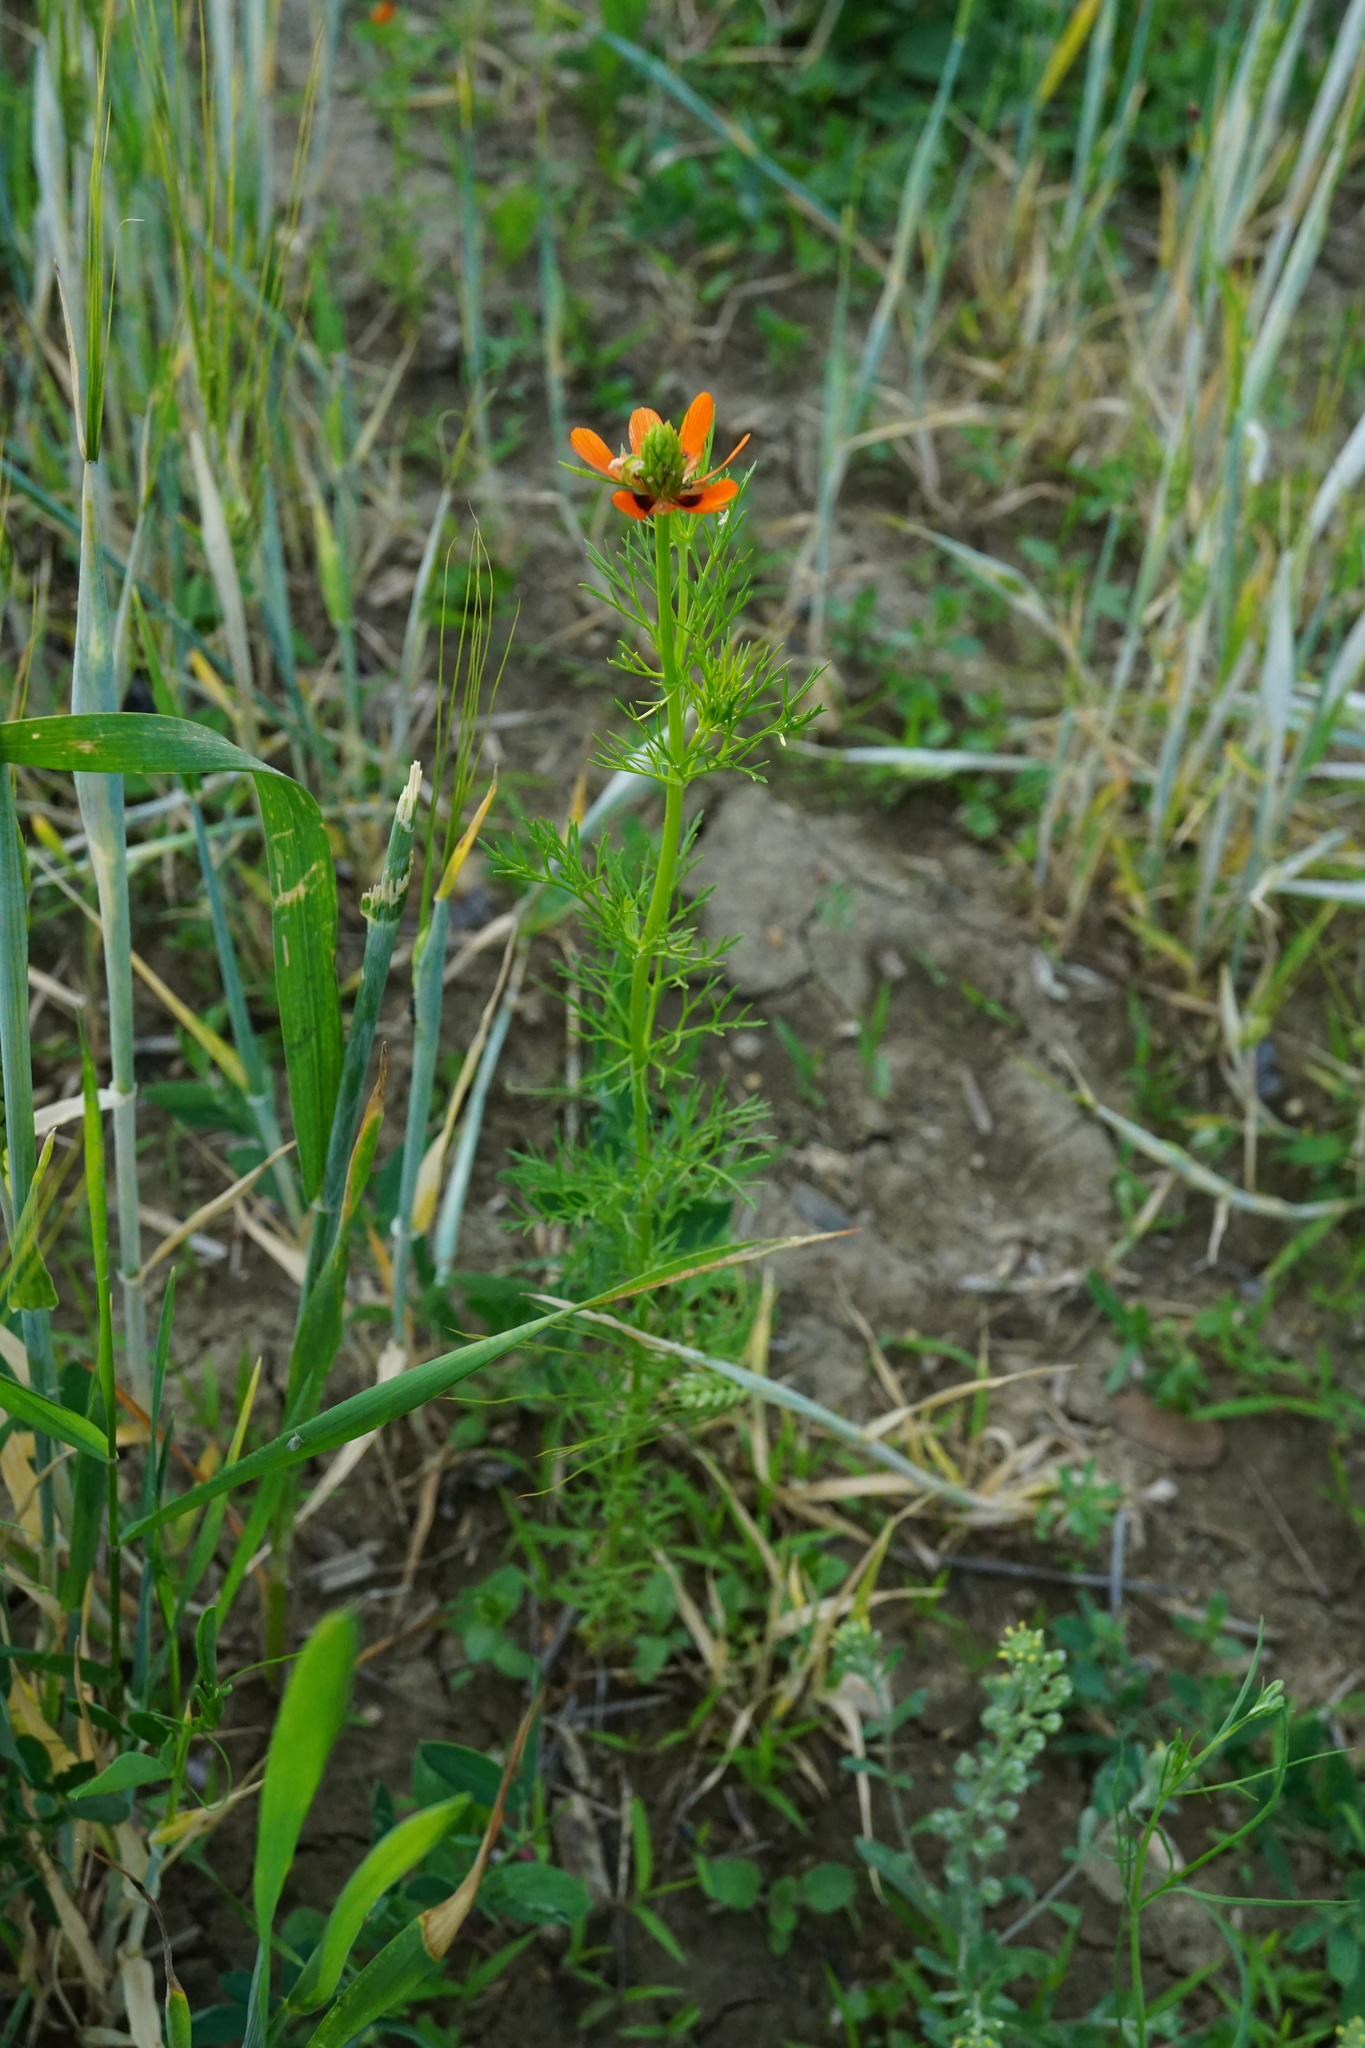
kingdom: Plantae
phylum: Tracheophyta
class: Magnoliopsida
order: Ranunculales
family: Ranunculaceae
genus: Adonis
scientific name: Adonis aestivalis
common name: Summer pheasant's-eye
